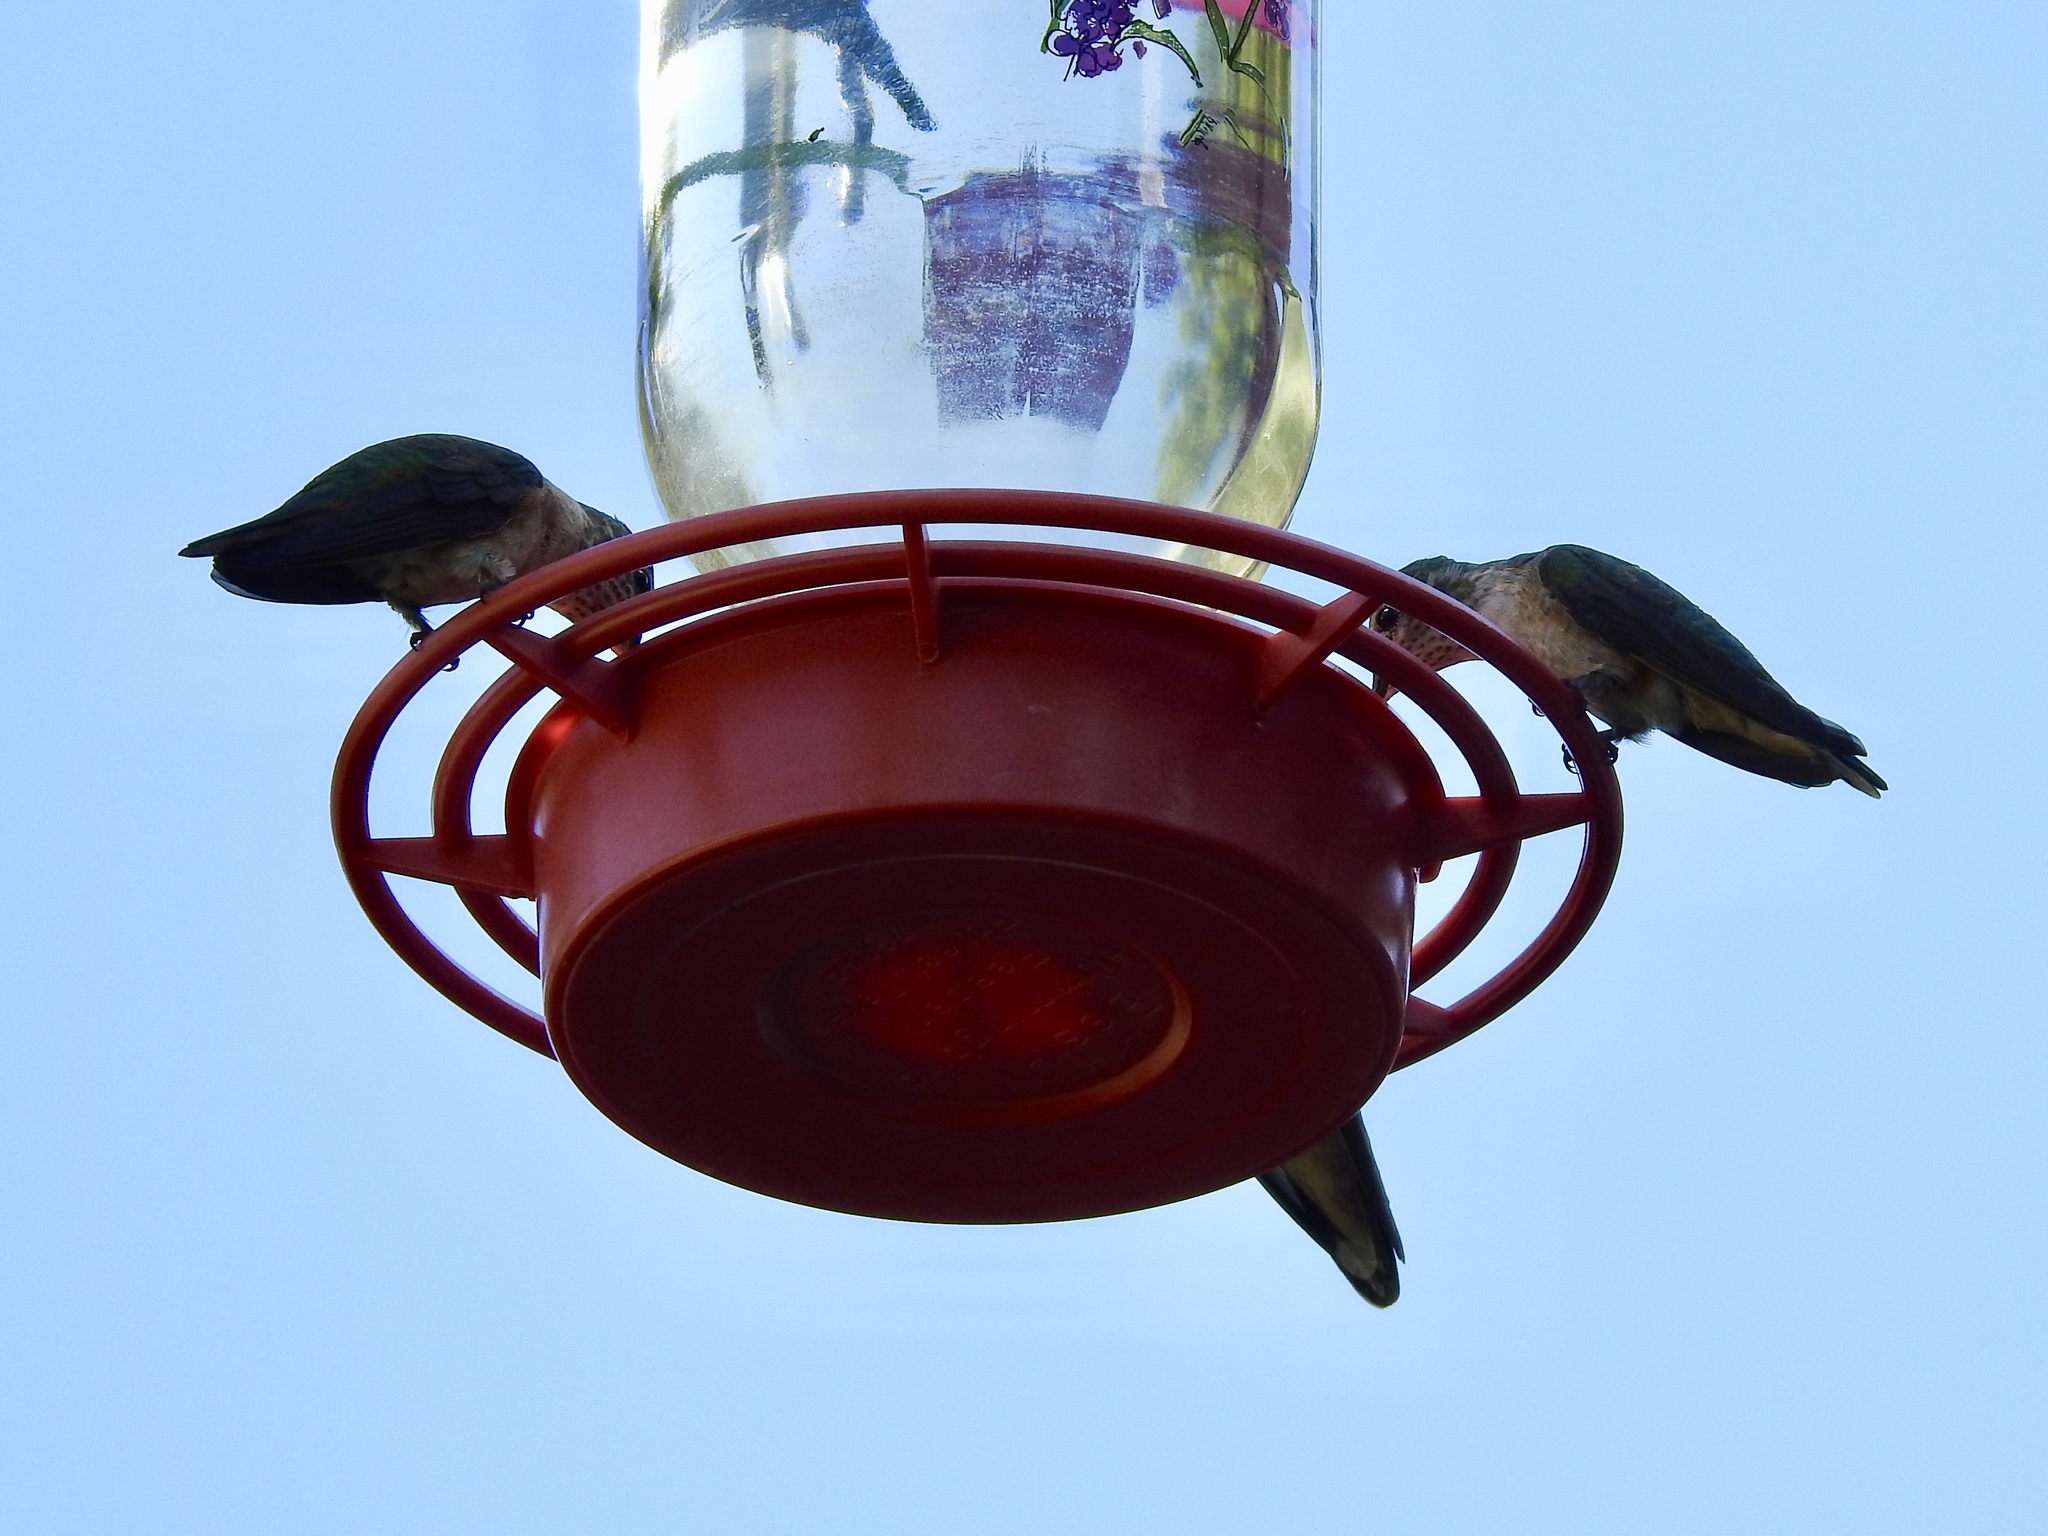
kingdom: Animalia
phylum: Chordata
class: Aves
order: Apodiformes
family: Trochilidae
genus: Selasphorus
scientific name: Selasphorus platycercus
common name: Broad-tailed hummingbird
